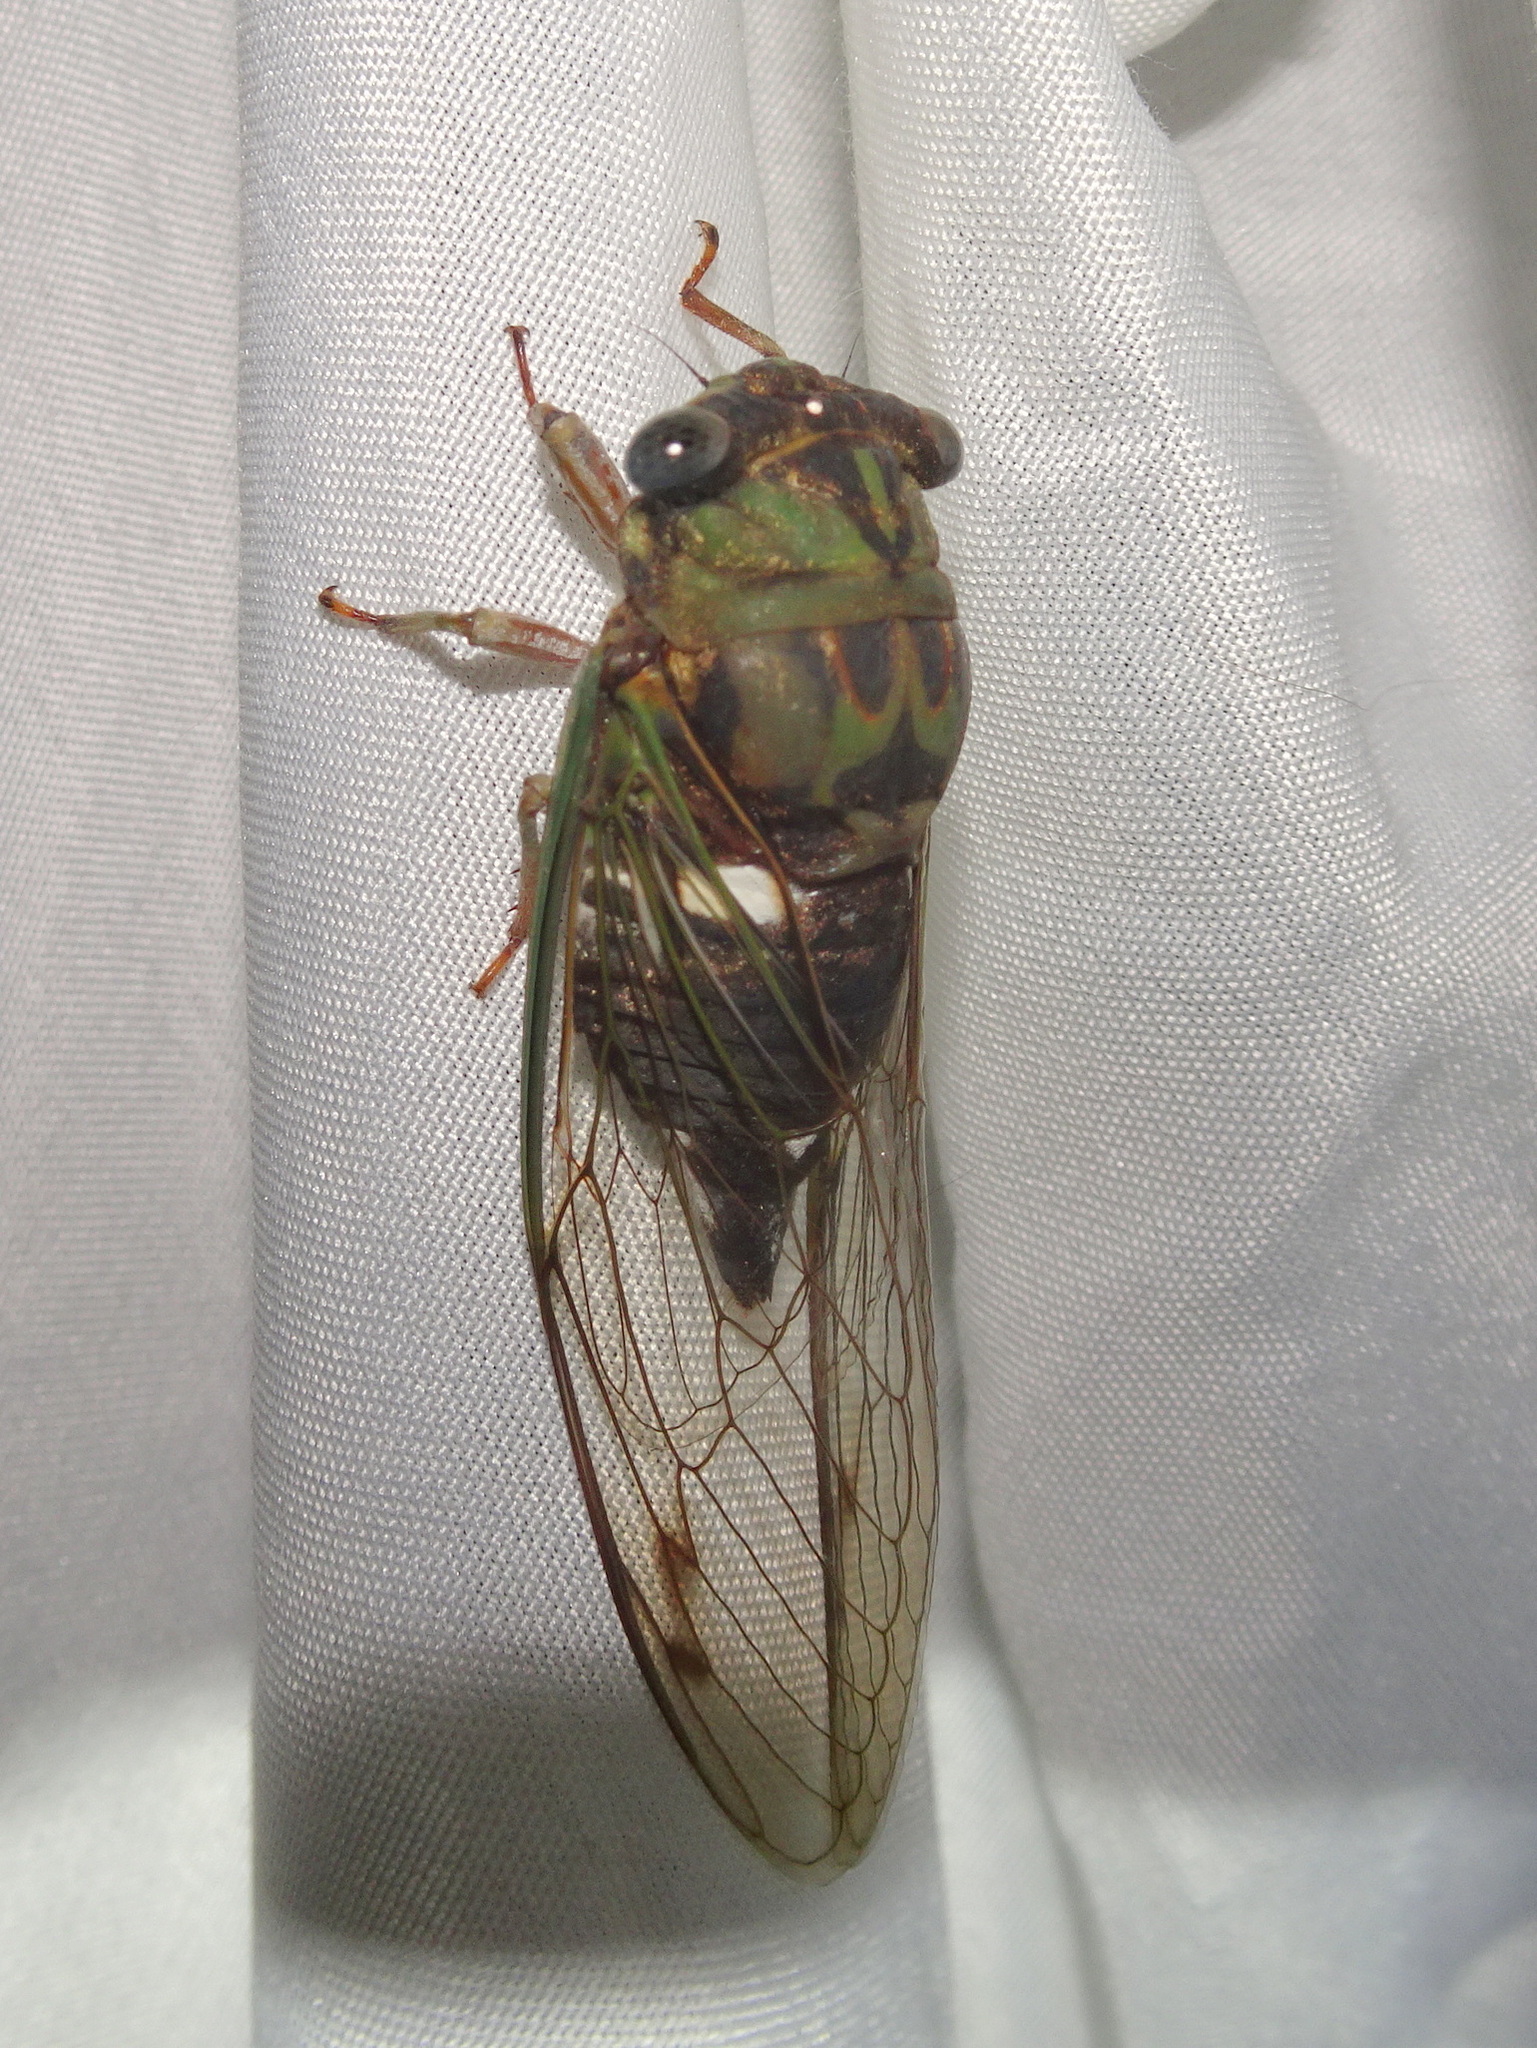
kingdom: Animalia
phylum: Arthropoda
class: Insecta
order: Hemiptera
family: Cicadidae
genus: Neotibicen
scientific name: Neotibicen pruinosus
